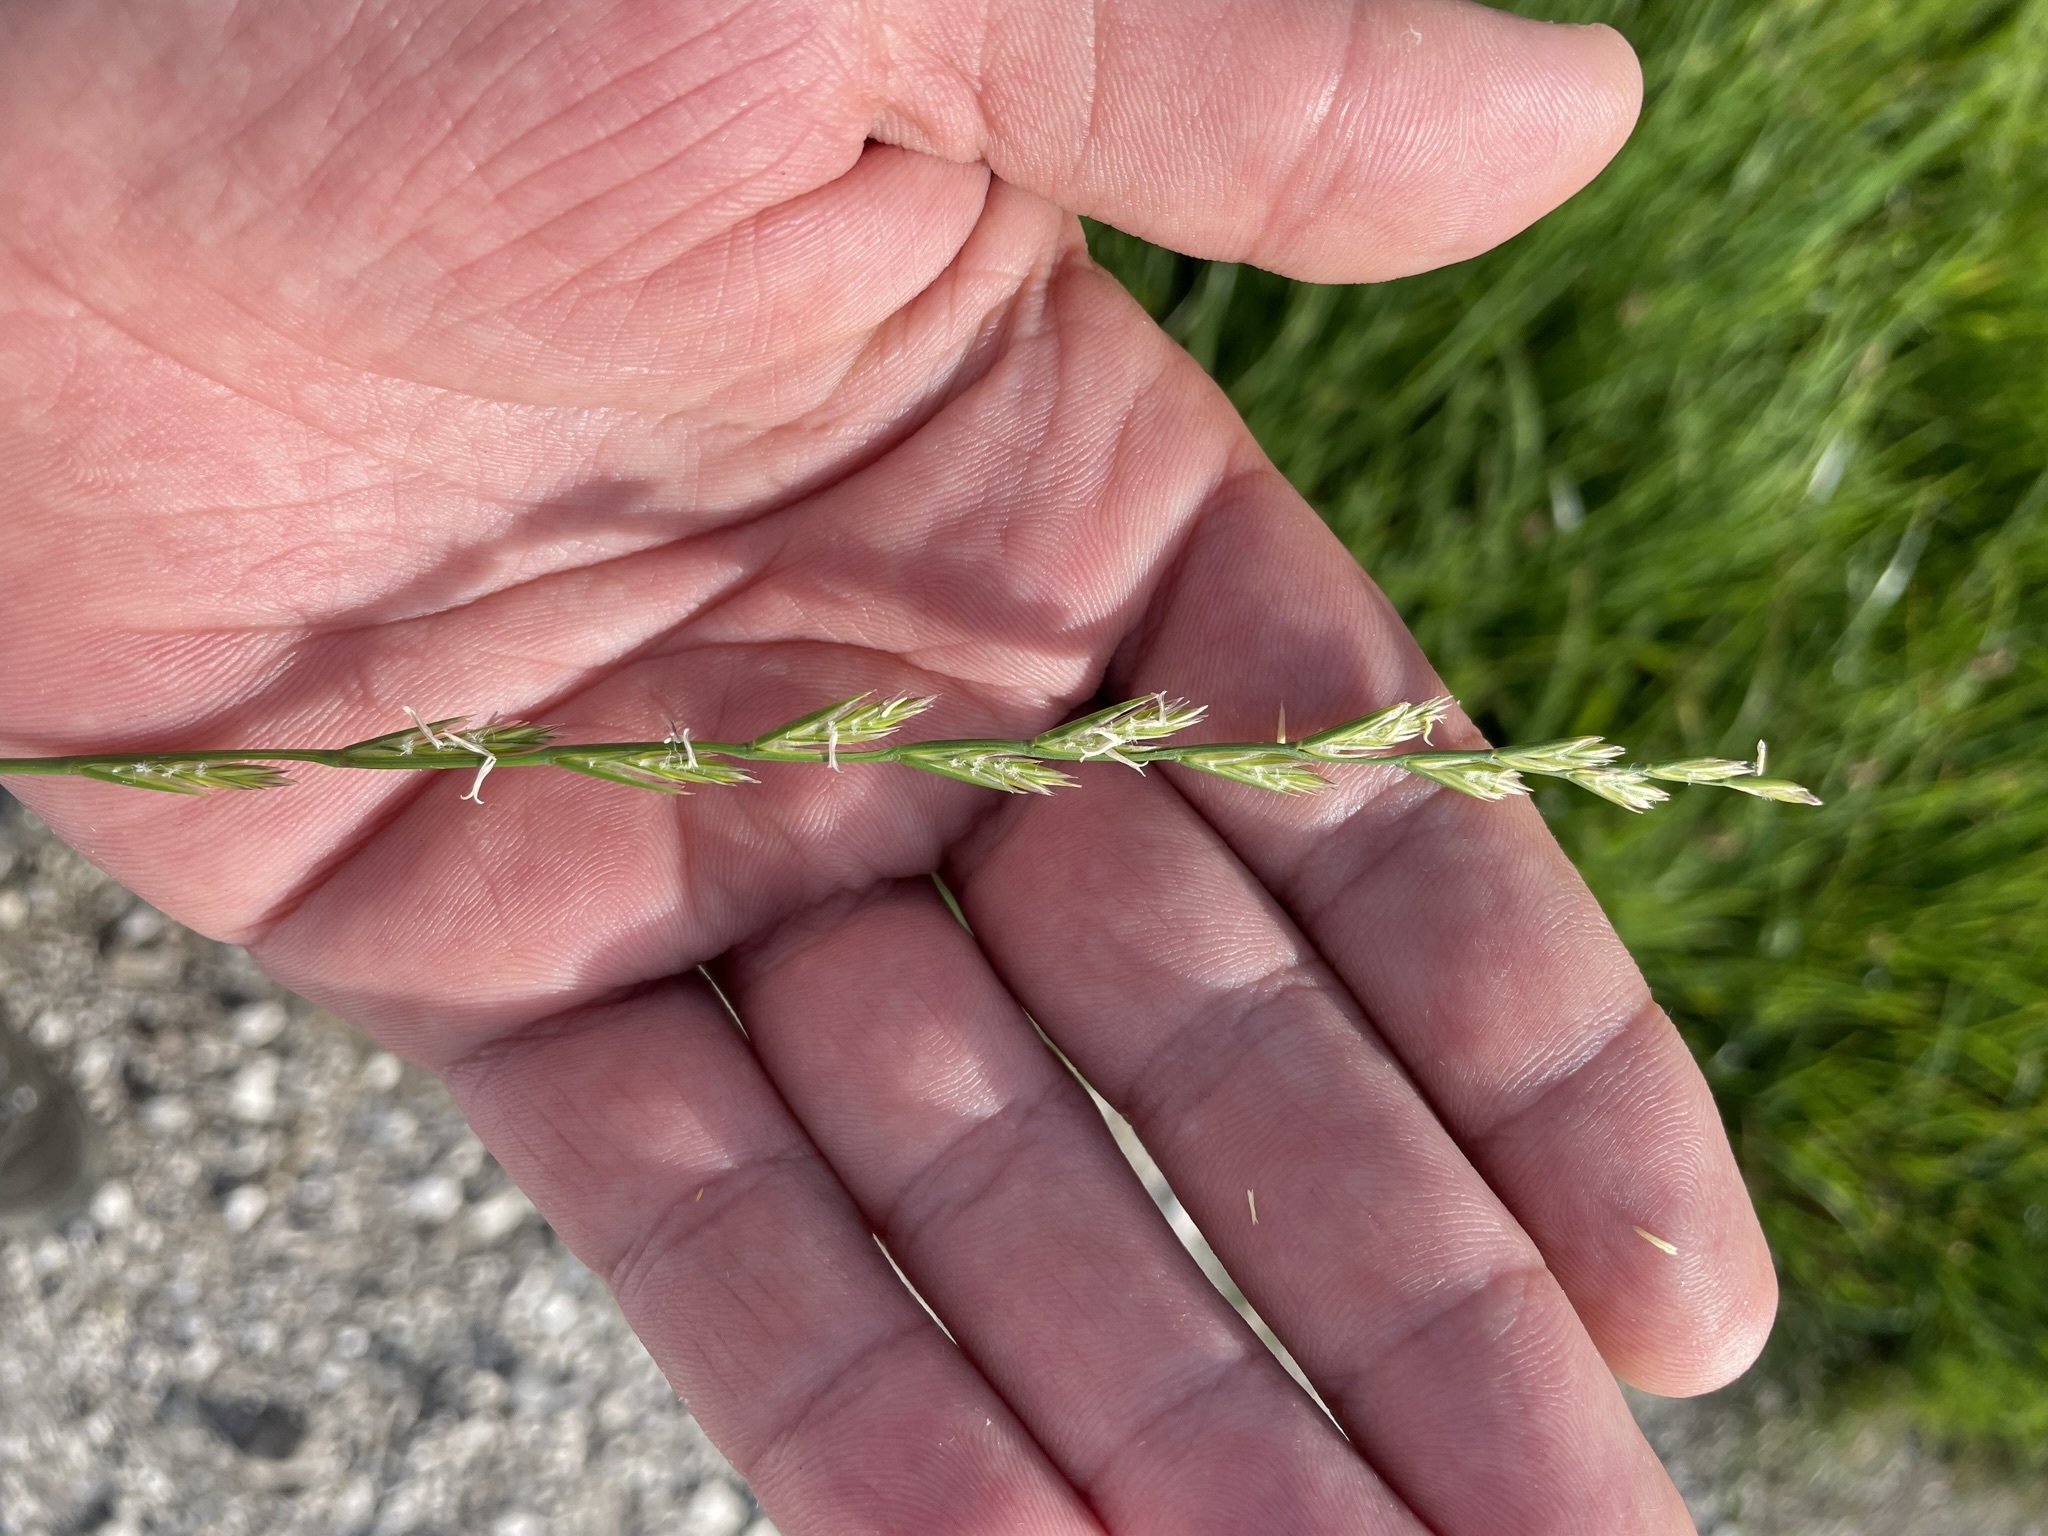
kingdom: Plantae
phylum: Tracheophyta
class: Liliopsida
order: Poales
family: Poaceae
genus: Lolium
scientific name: Lolium perenne
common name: Perennial ryegrass
